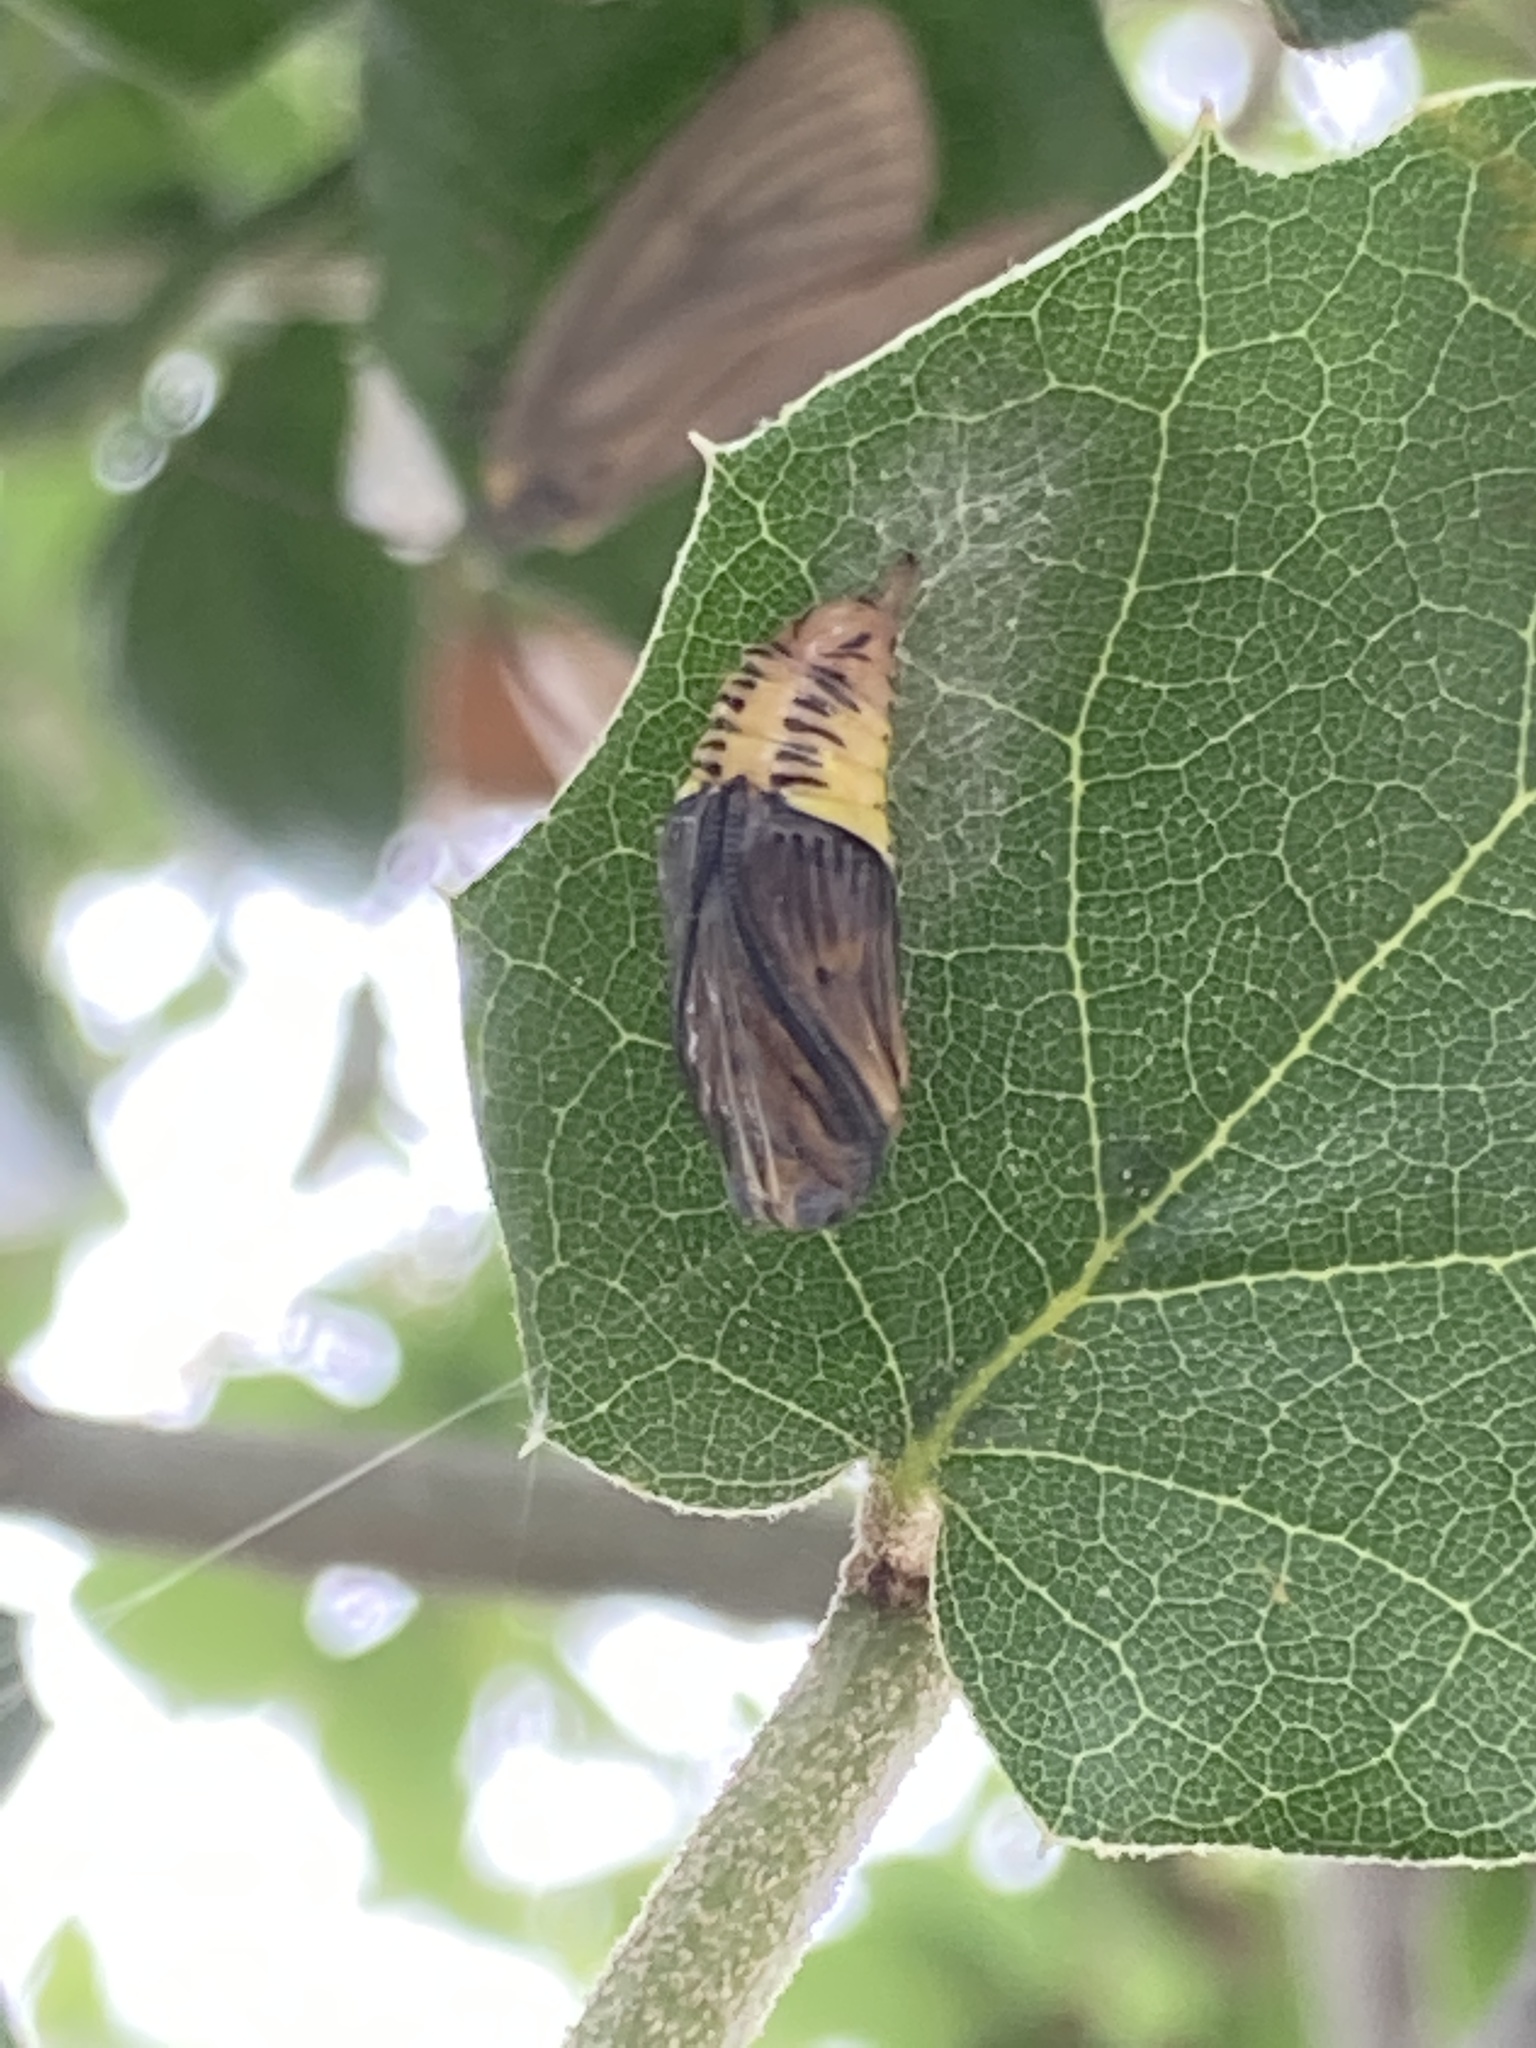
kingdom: Animalia
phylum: Arthropoda
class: Insecta
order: Lepidoptera
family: Notodontidae
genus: Phryganidia
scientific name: Phryganidia californica
